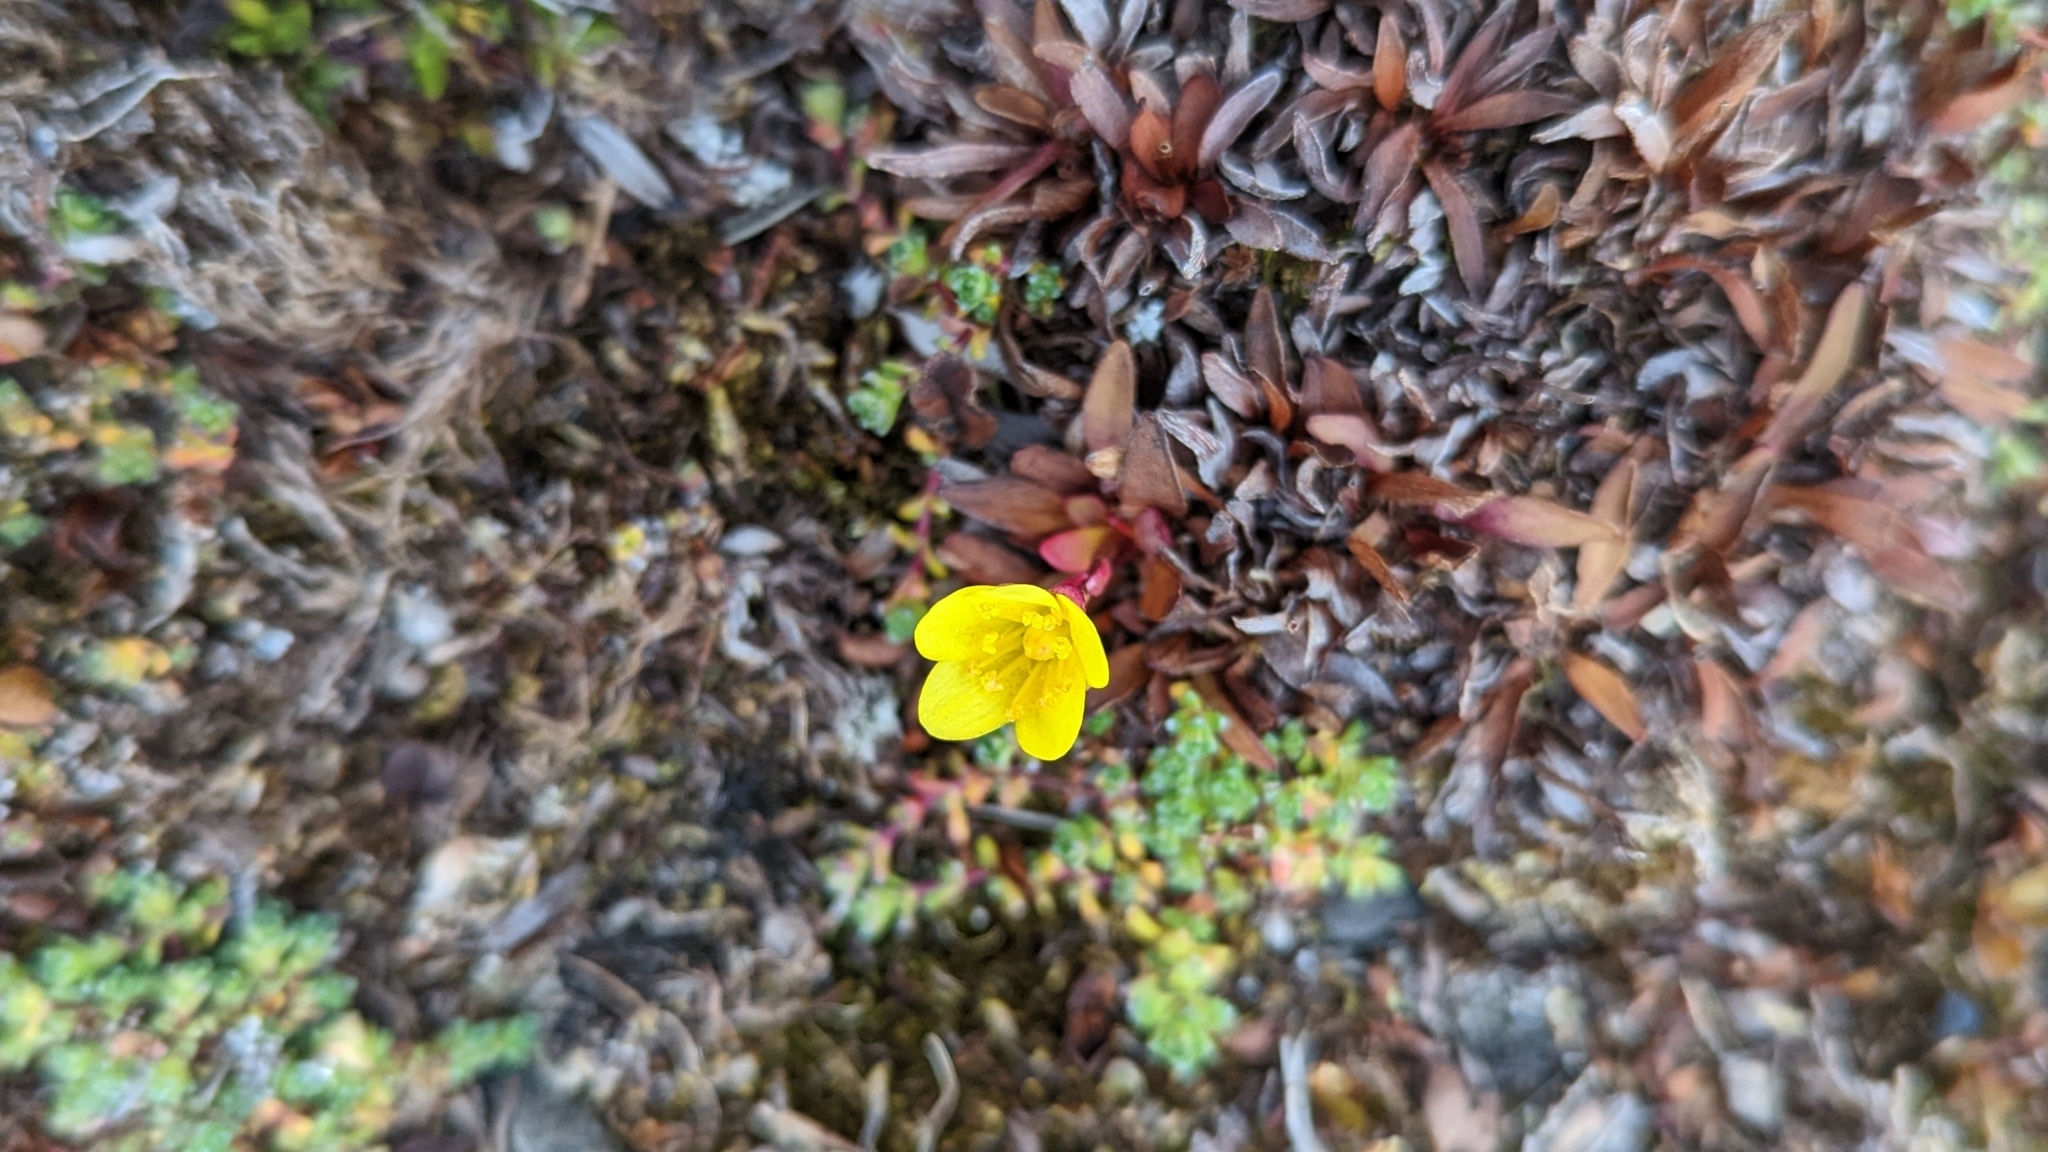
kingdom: Plantae
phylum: Tracheophyta
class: Magnoliopsida
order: Saxifragales
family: Saxifragaceae
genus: Saxifraga
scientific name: Saxifraga hirculus
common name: Yellow marsh saxifrage
